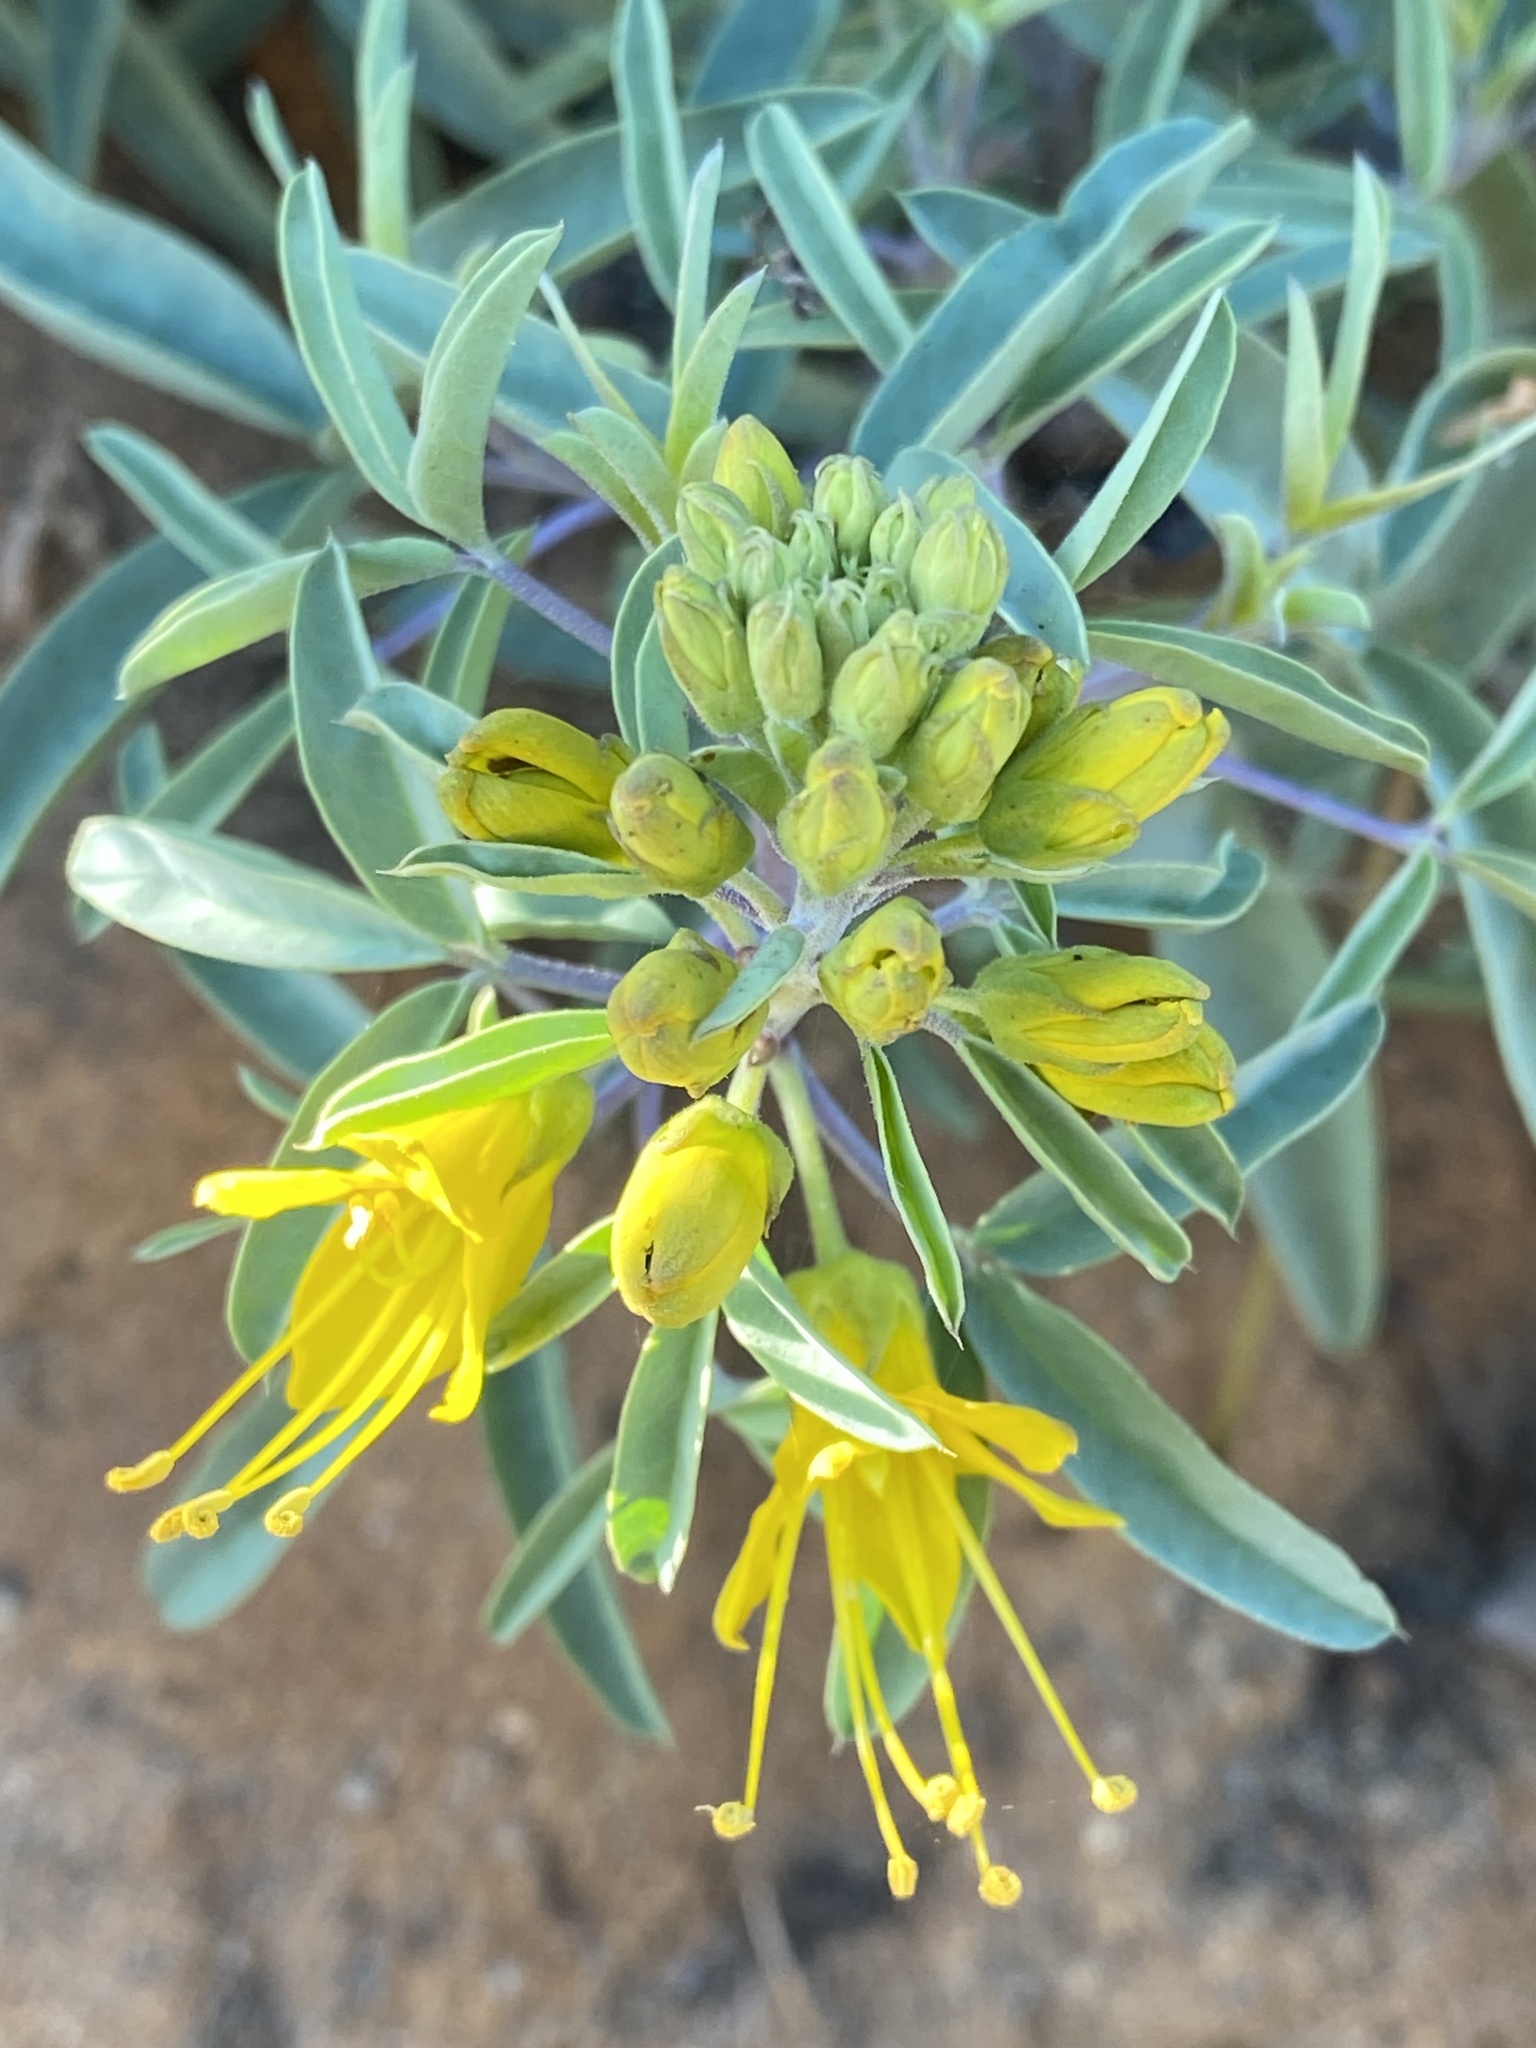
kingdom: Plantae
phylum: Tracheophyta
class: Magnoliopsida
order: Brassicales
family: Cleomaceae
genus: Cleomella
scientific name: Cleomella arborea
